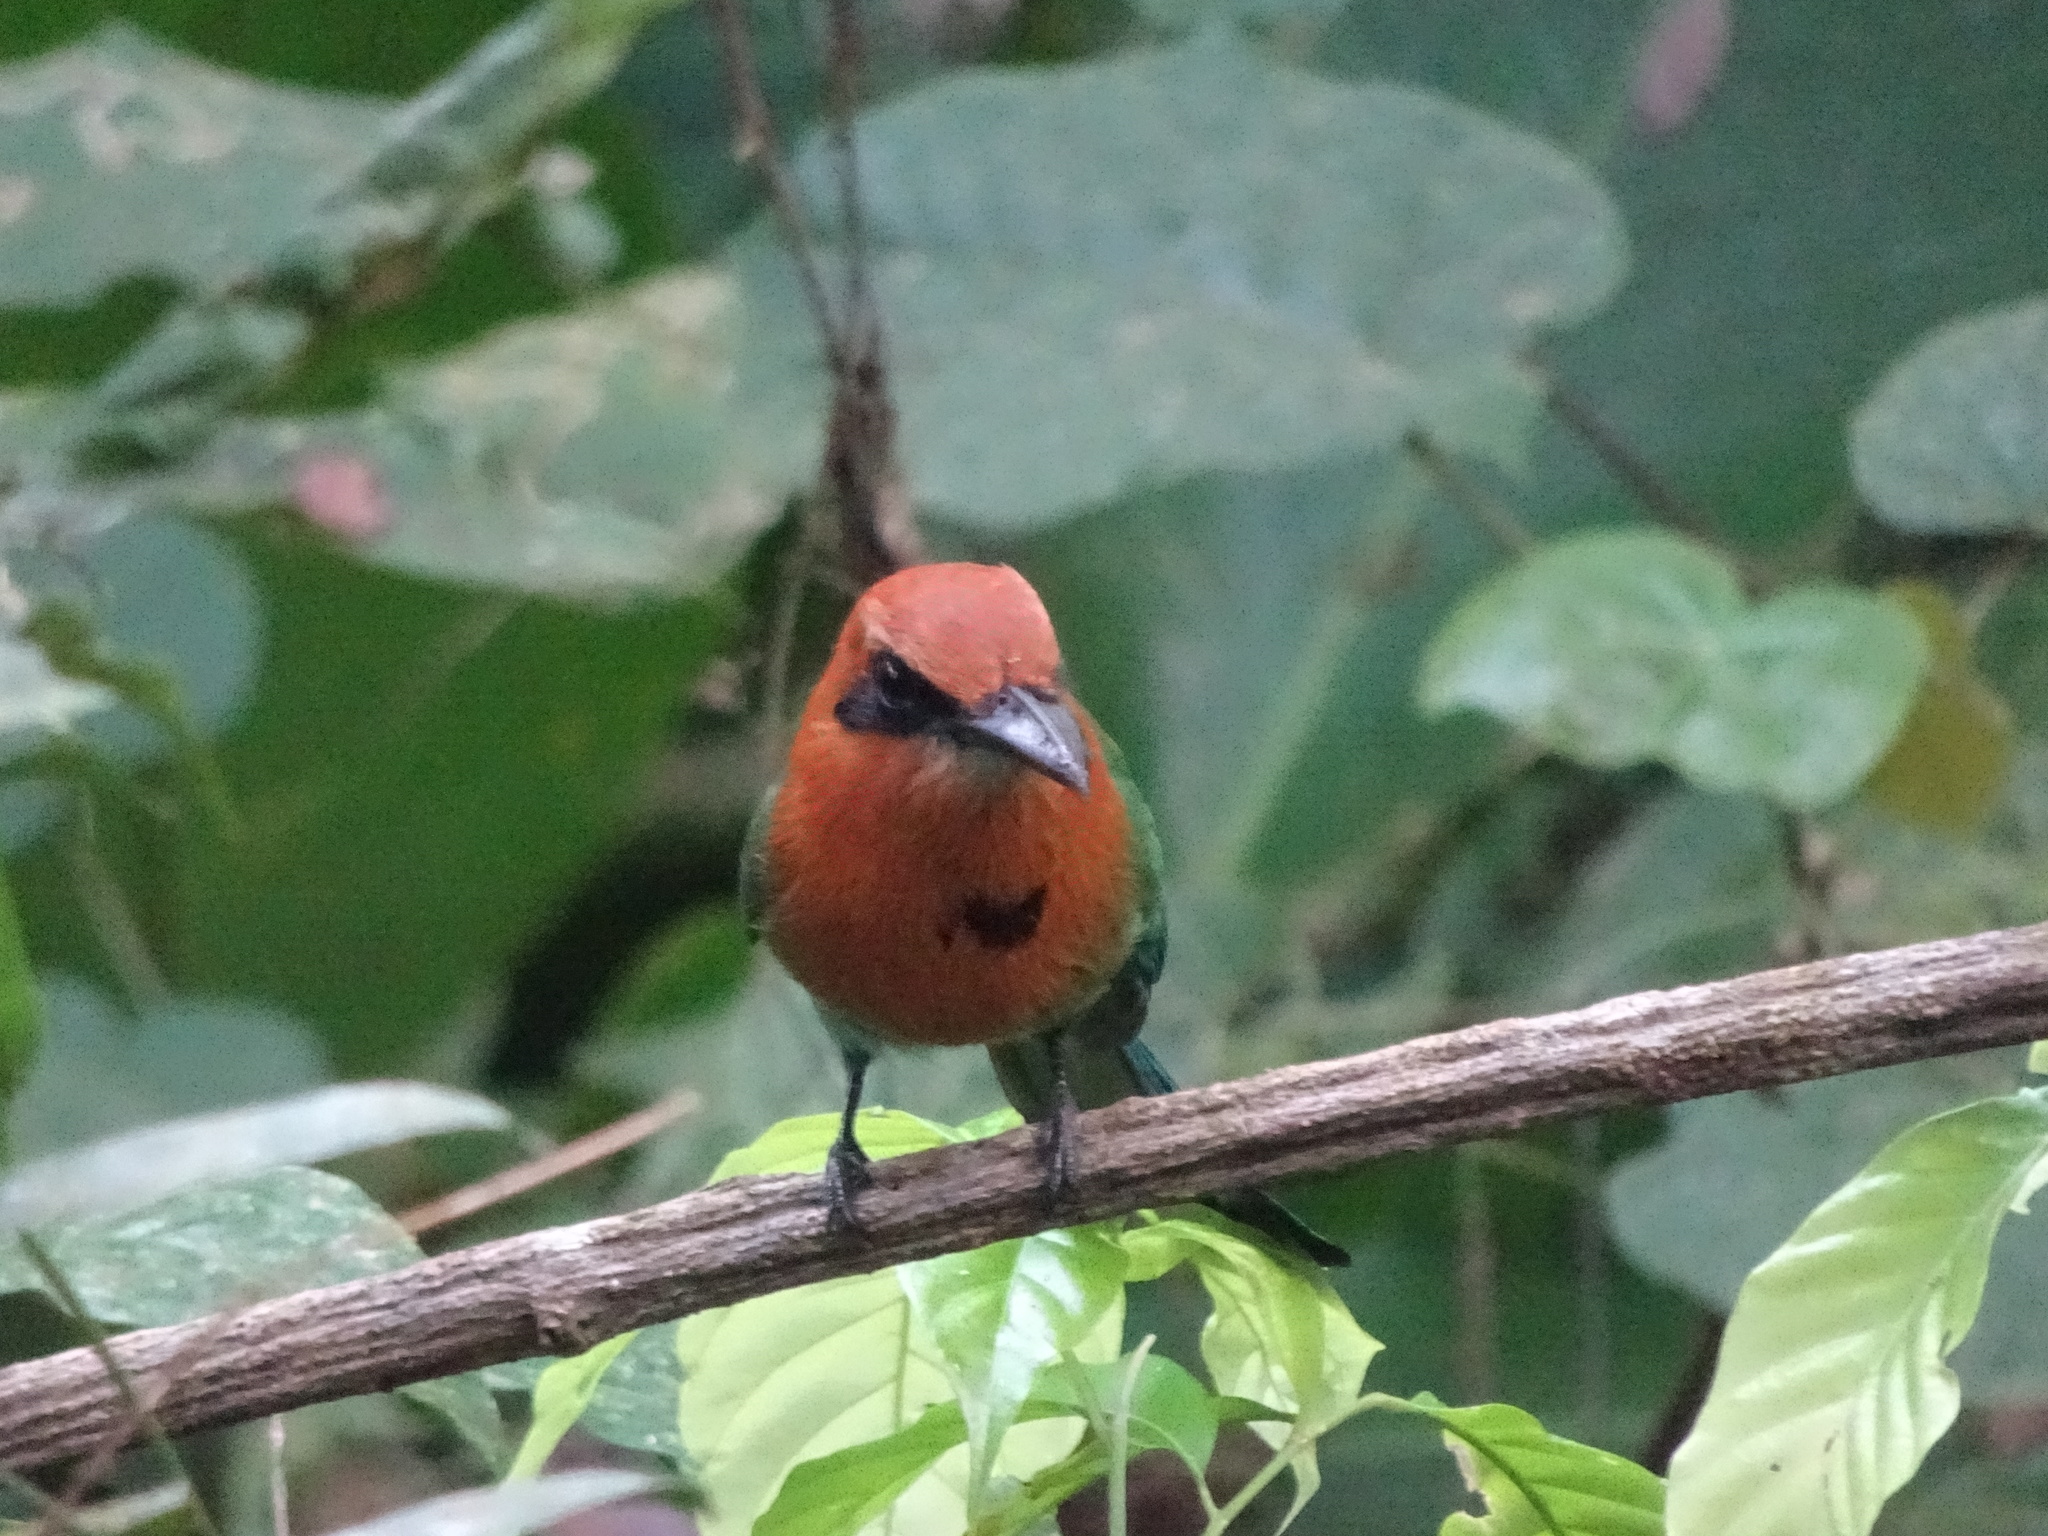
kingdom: Animalia
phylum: Chordata
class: Aves
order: Coraciiformes
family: Momotidae
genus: Electron
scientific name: Electron platyrhynchum
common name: Broad-billed motmot
